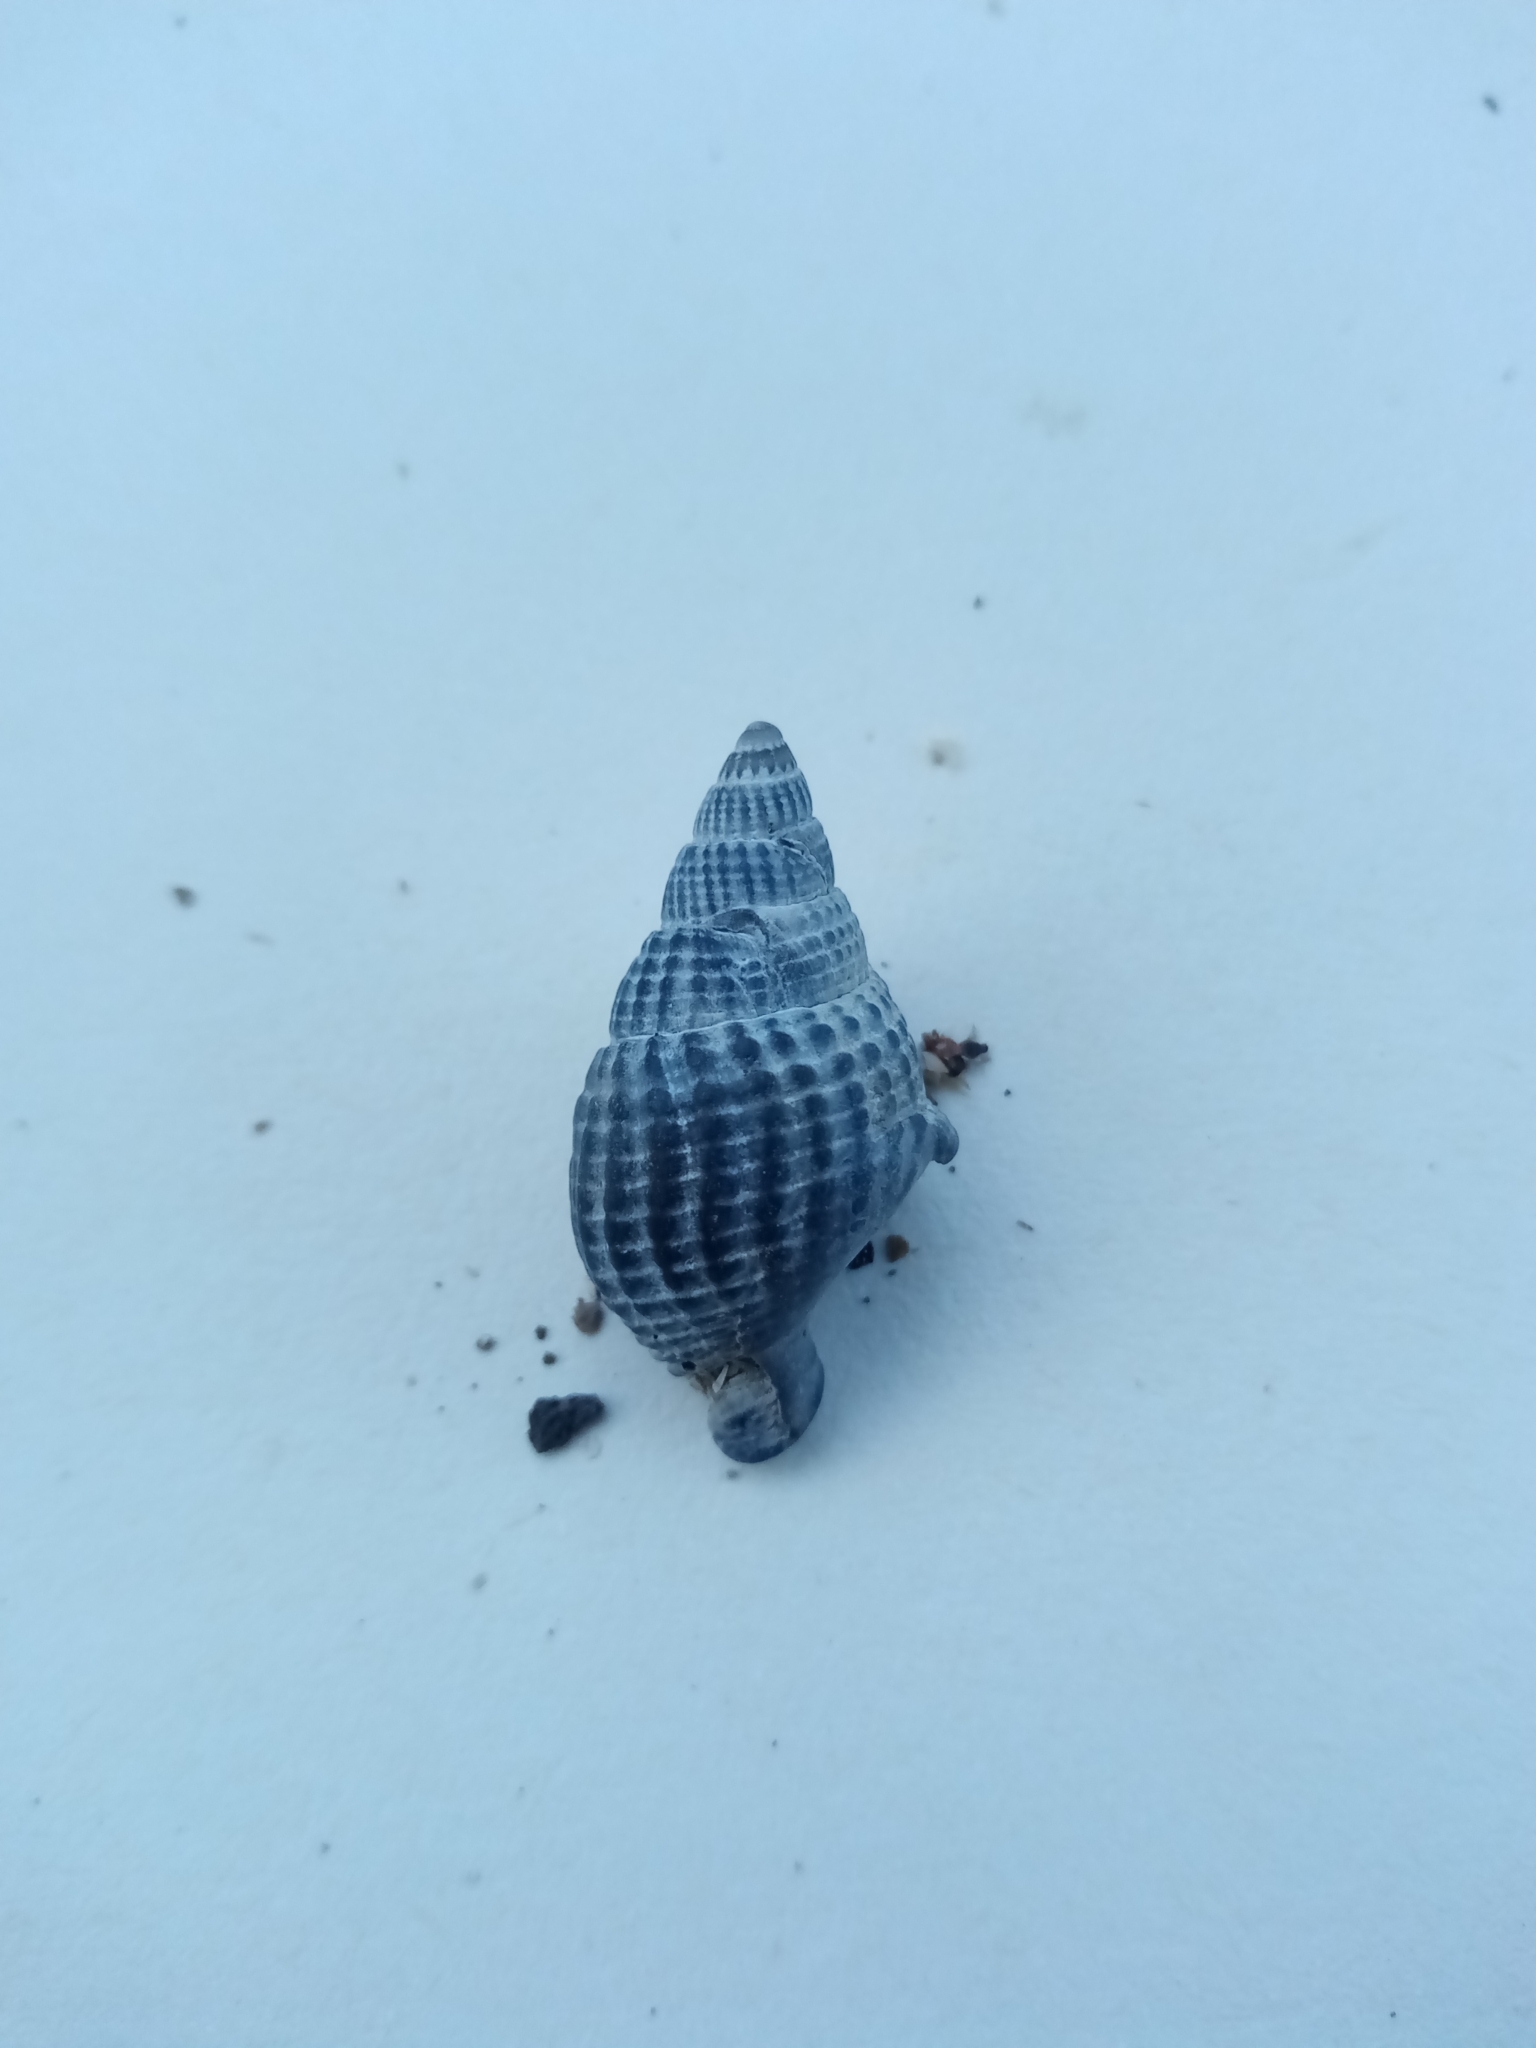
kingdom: Animalia
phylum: Mollusca
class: Gastropoda
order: Neogastropoda
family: Nassariidae
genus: Tritia
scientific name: Tritia
